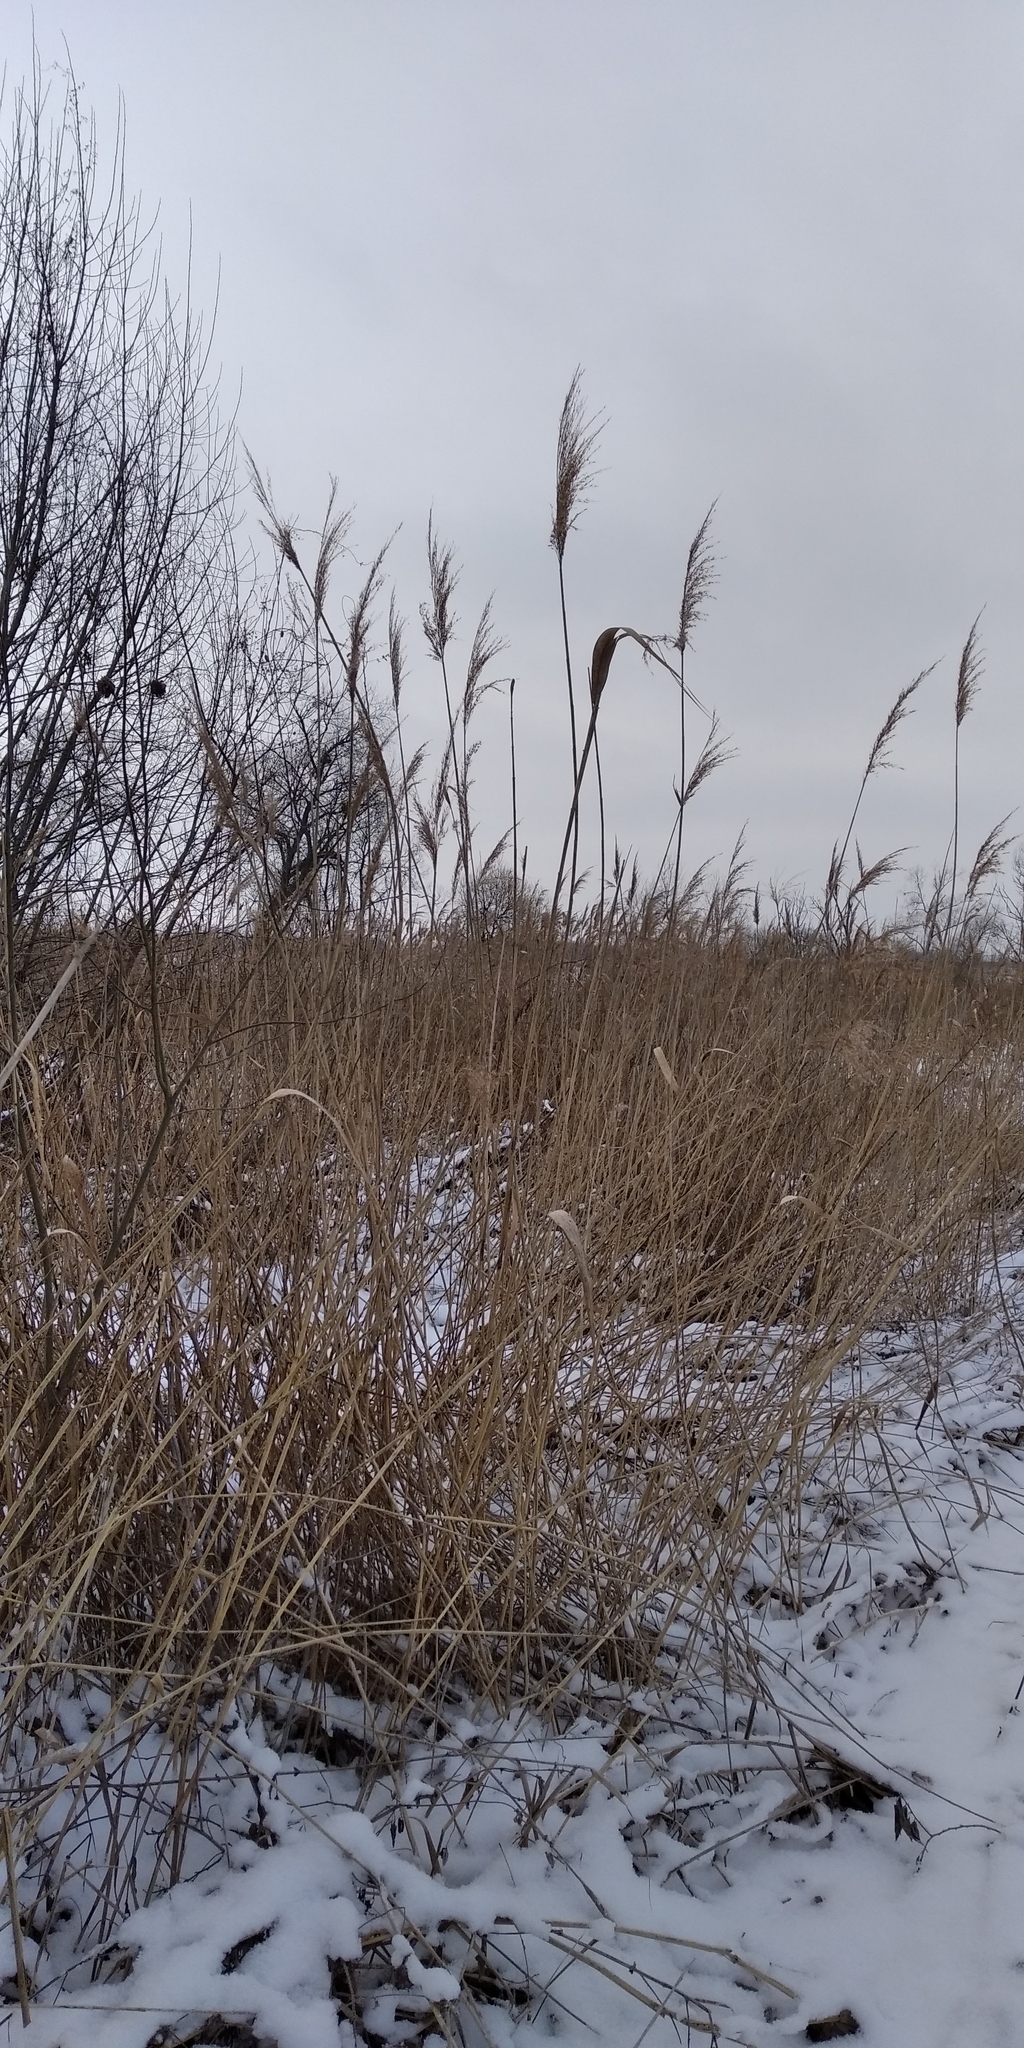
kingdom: Plantae
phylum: Tracheophyta
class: Liliopsida
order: Poales
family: Typhaceae
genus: Typha
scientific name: Typha latifolia
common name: Broadleaf cattail
